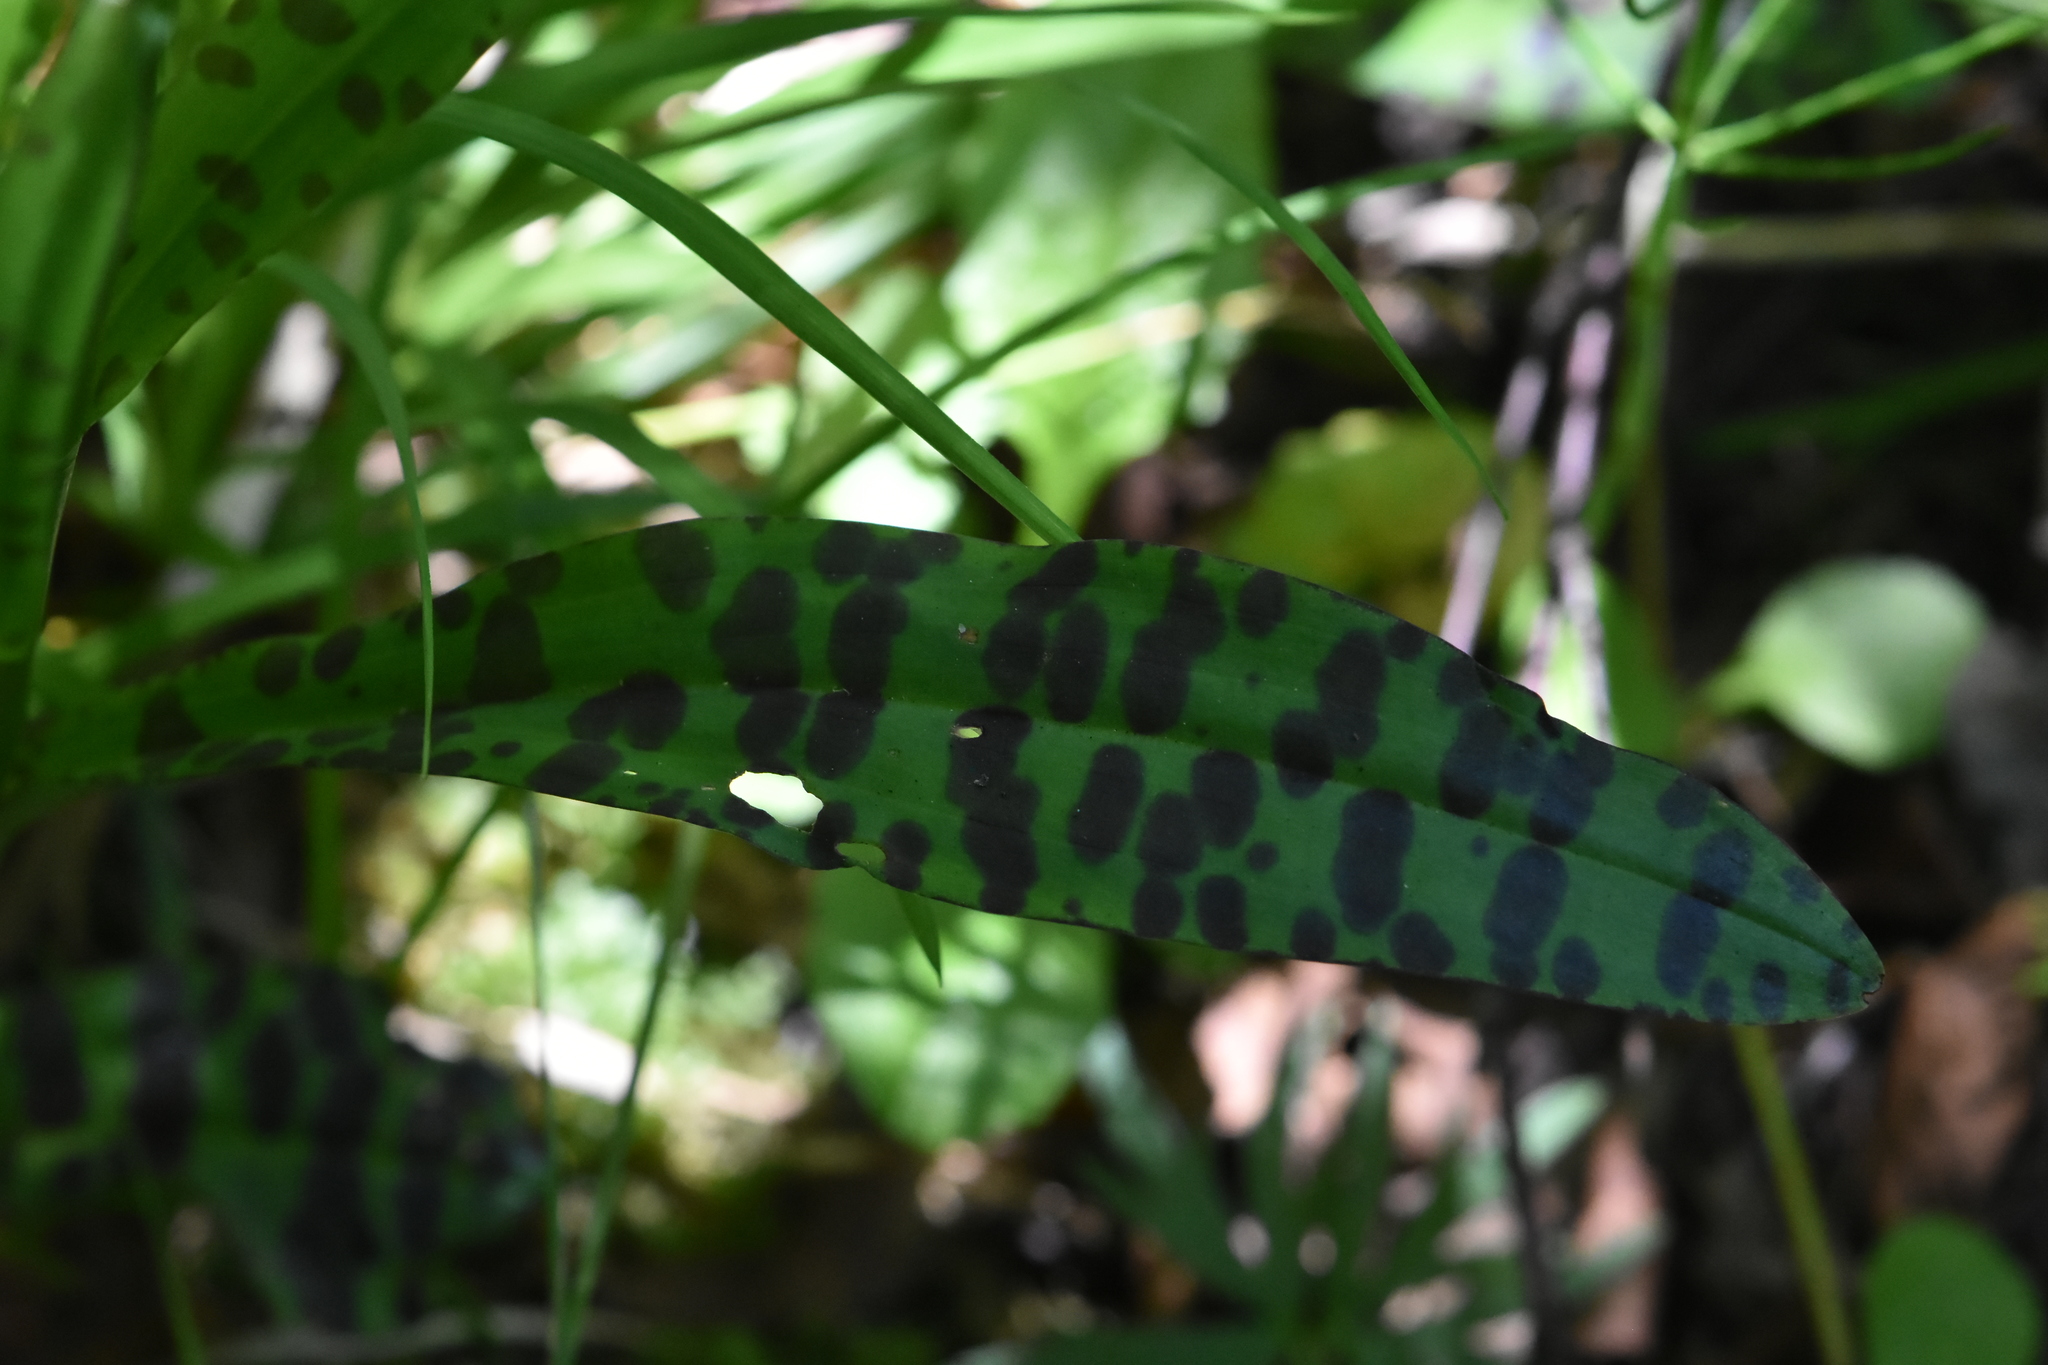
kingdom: Plantae
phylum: Tracheophyta
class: Liliopsida
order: Asparagales
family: Orchidaceae
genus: Dactylorhiza
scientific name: Dactylorhiza maculata
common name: Heath spotted-orchid
